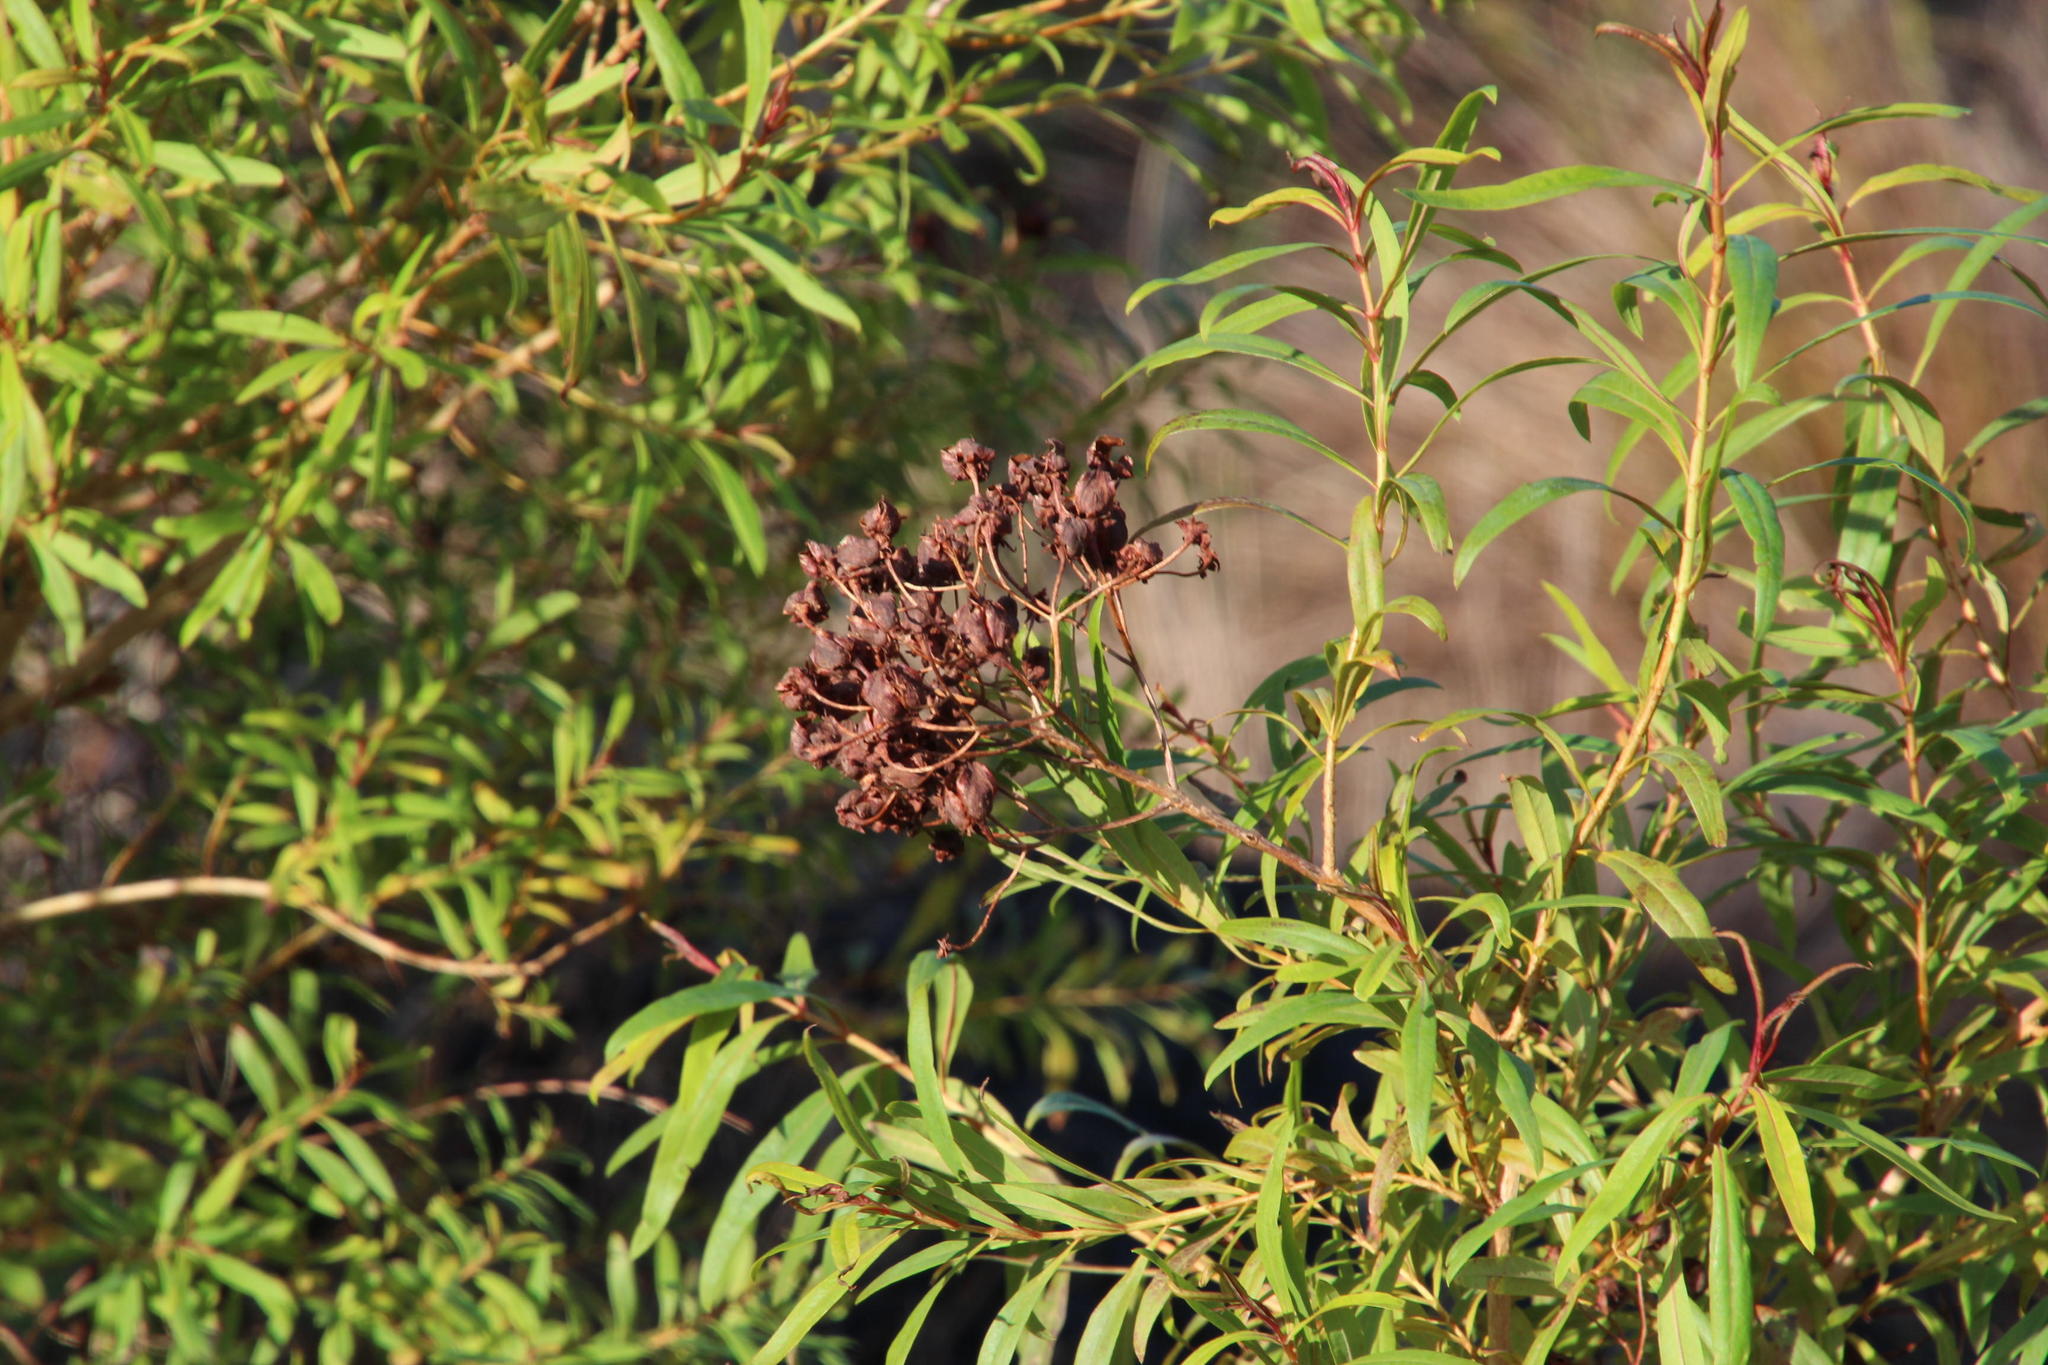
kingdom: Plantae
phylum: Tracheophyta
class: Magnoliopsida
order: Malpighiales
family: Hypericaceae
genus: Hypericum
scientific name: Hypericum canariense
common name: Canary island st. johnswort
